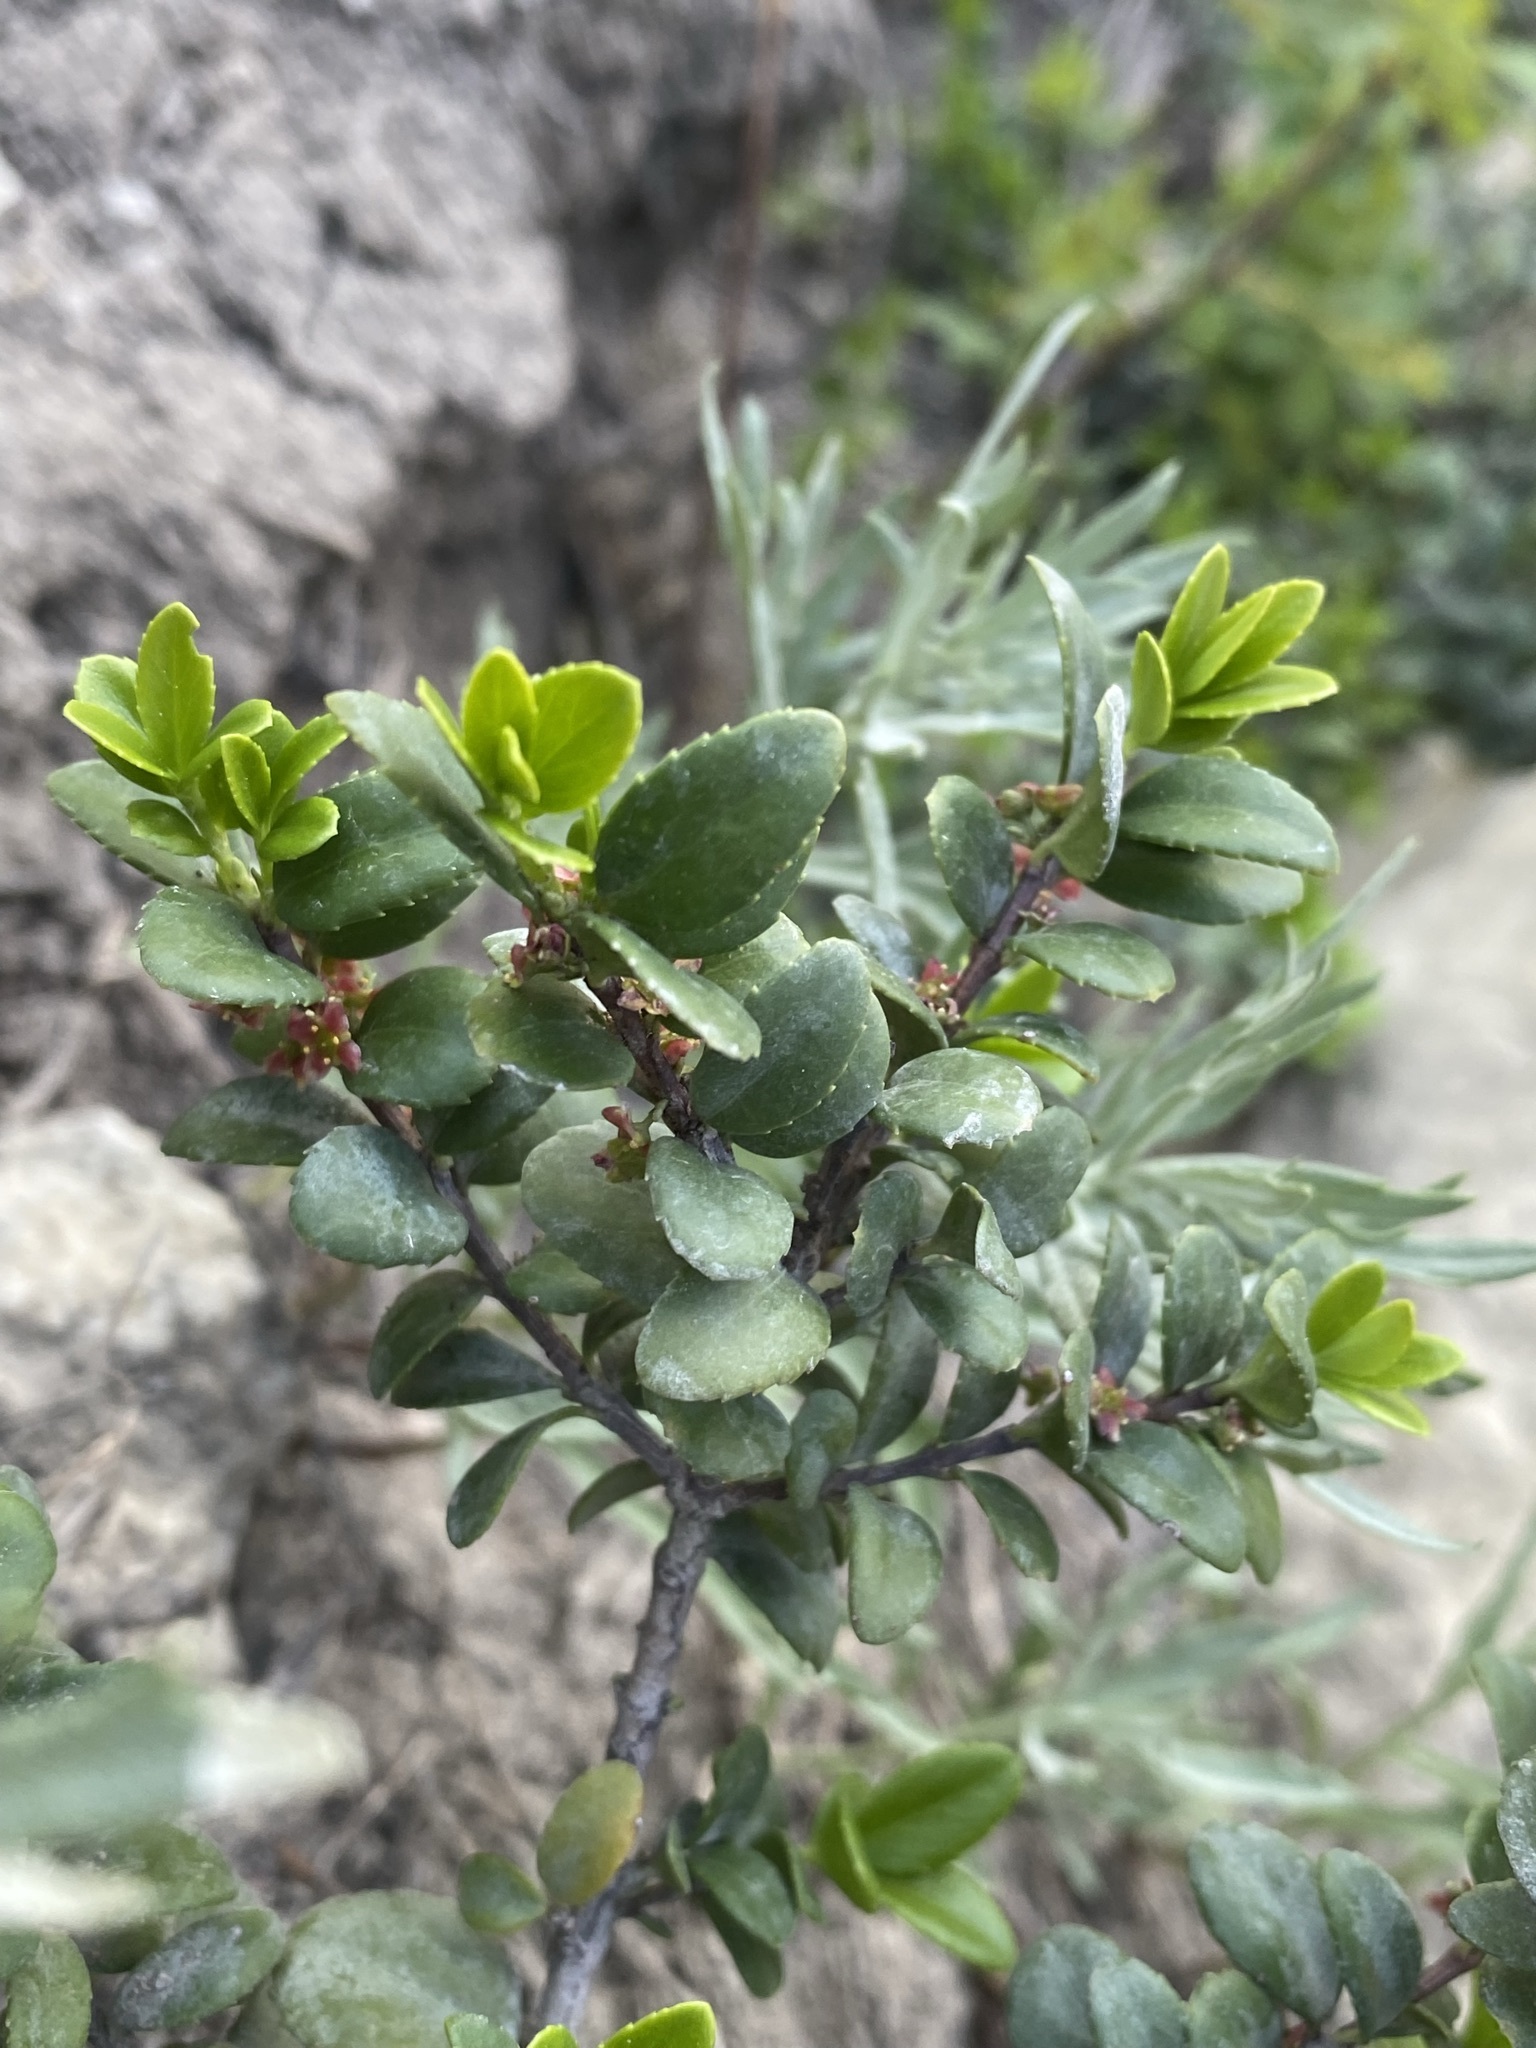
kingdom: Plantae
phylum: Tracheophyta
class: Magnoliopsida
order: Celastrales
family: Celastraceae
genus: Paxistima
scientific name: Paxistima myrsinites
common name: Mountain-lover
